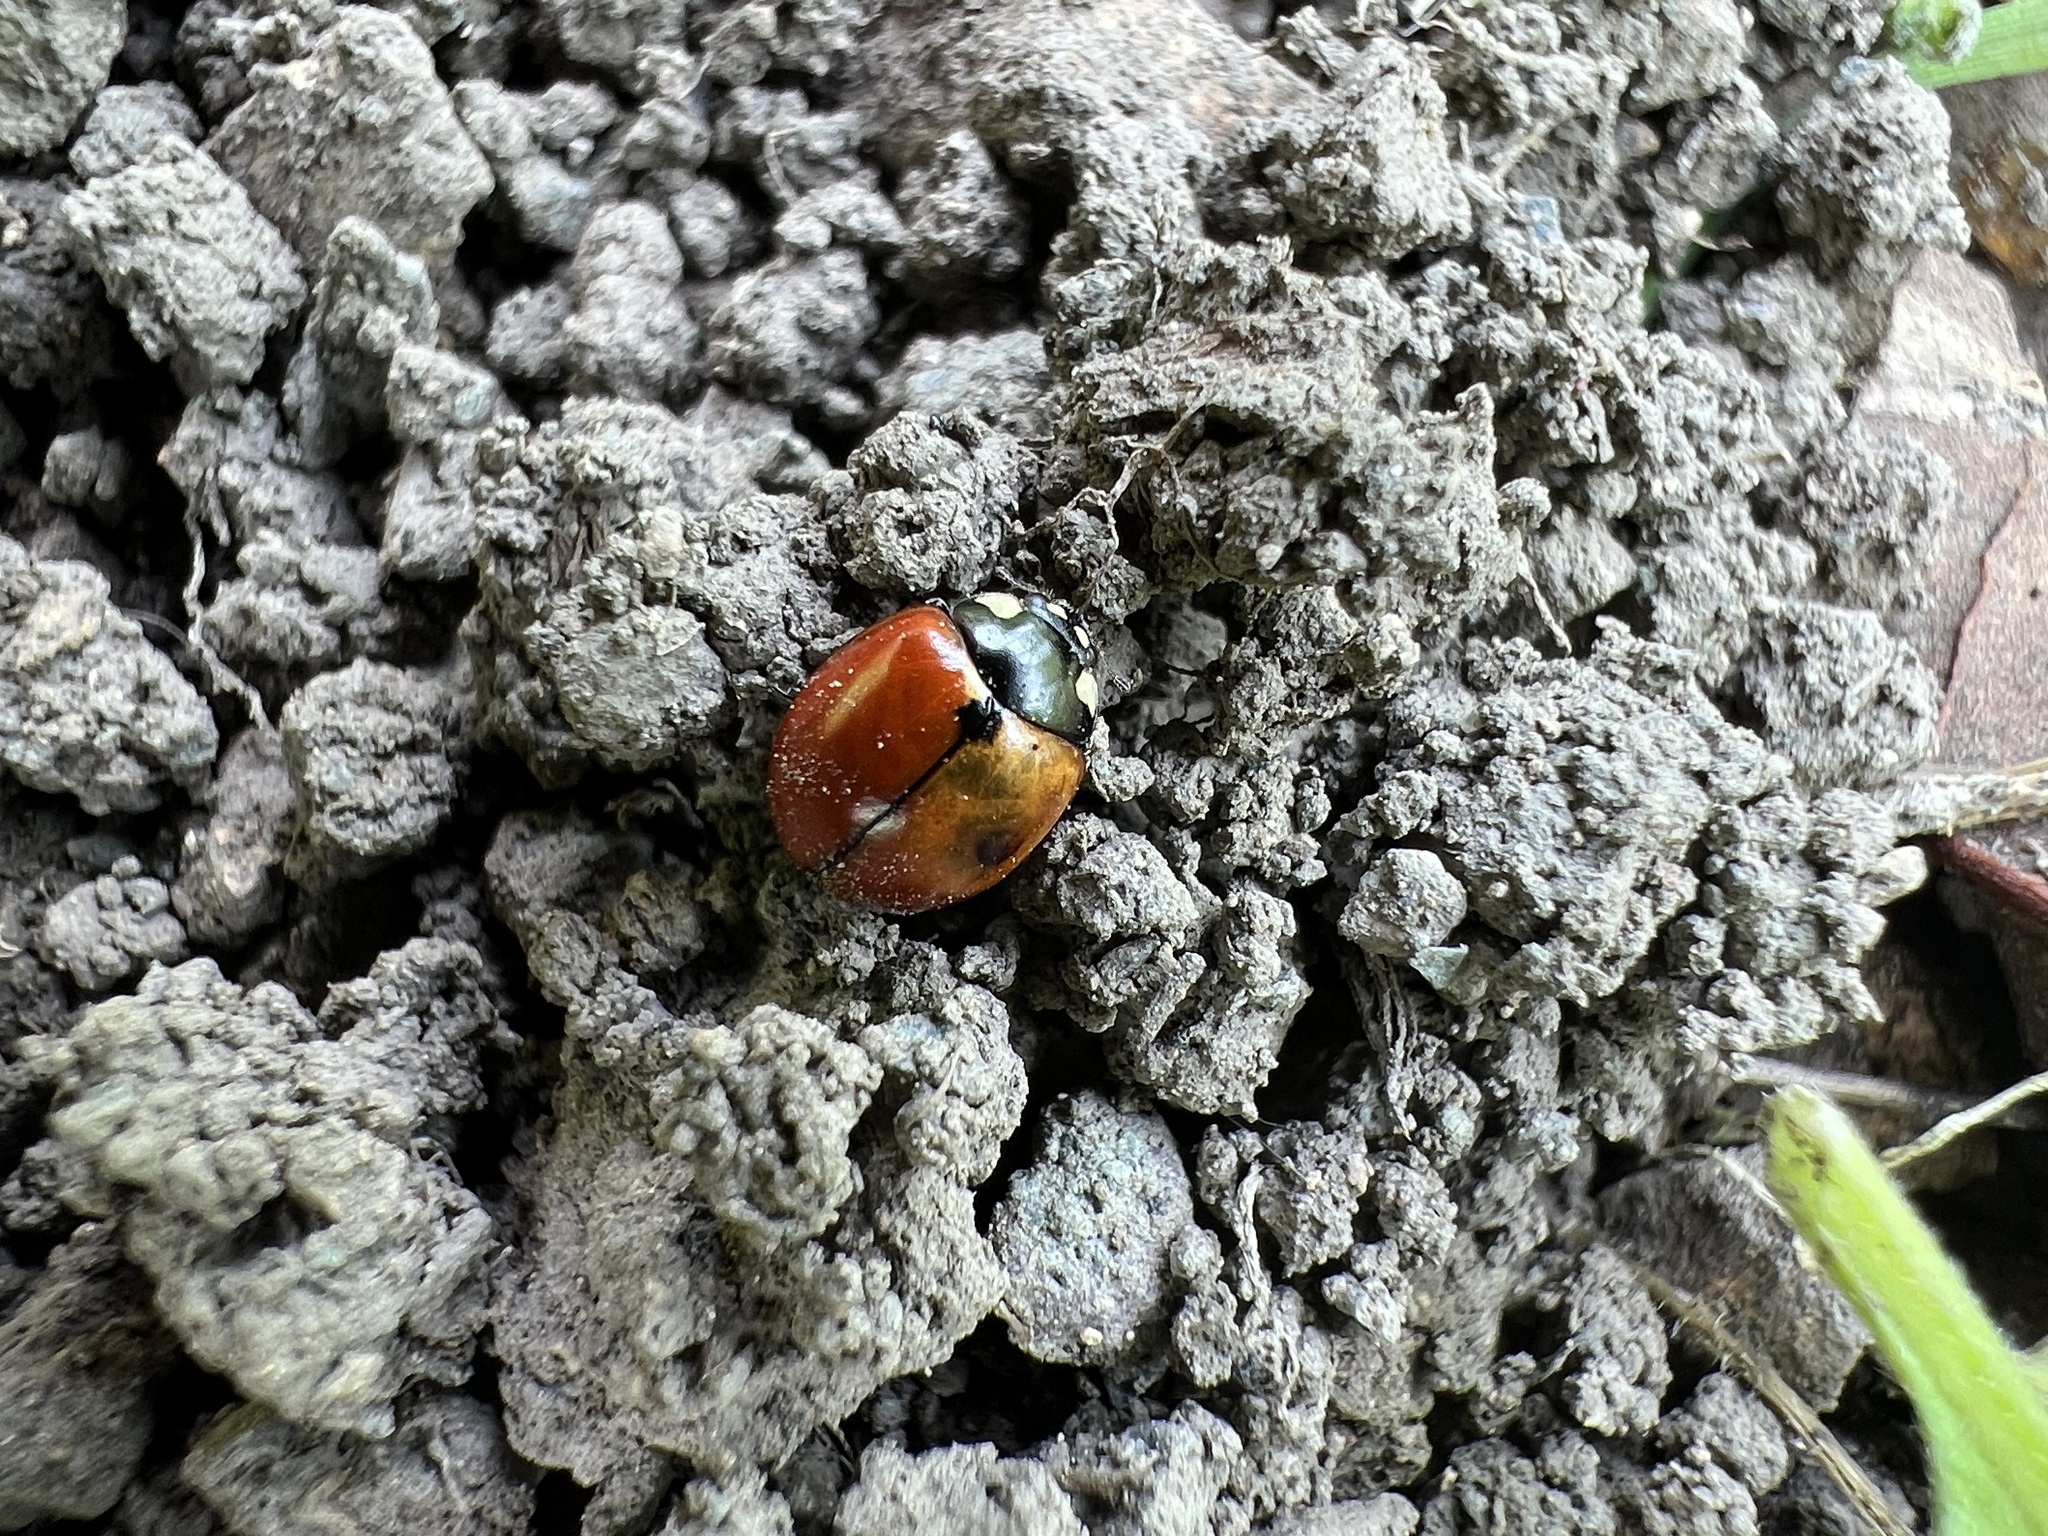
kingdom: Animalia
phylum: Arthropoda
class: Insecta
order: Coleoptera
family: Coccinellidae
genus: Coccinella
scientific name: Coccinella californica
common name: Lady beetle
